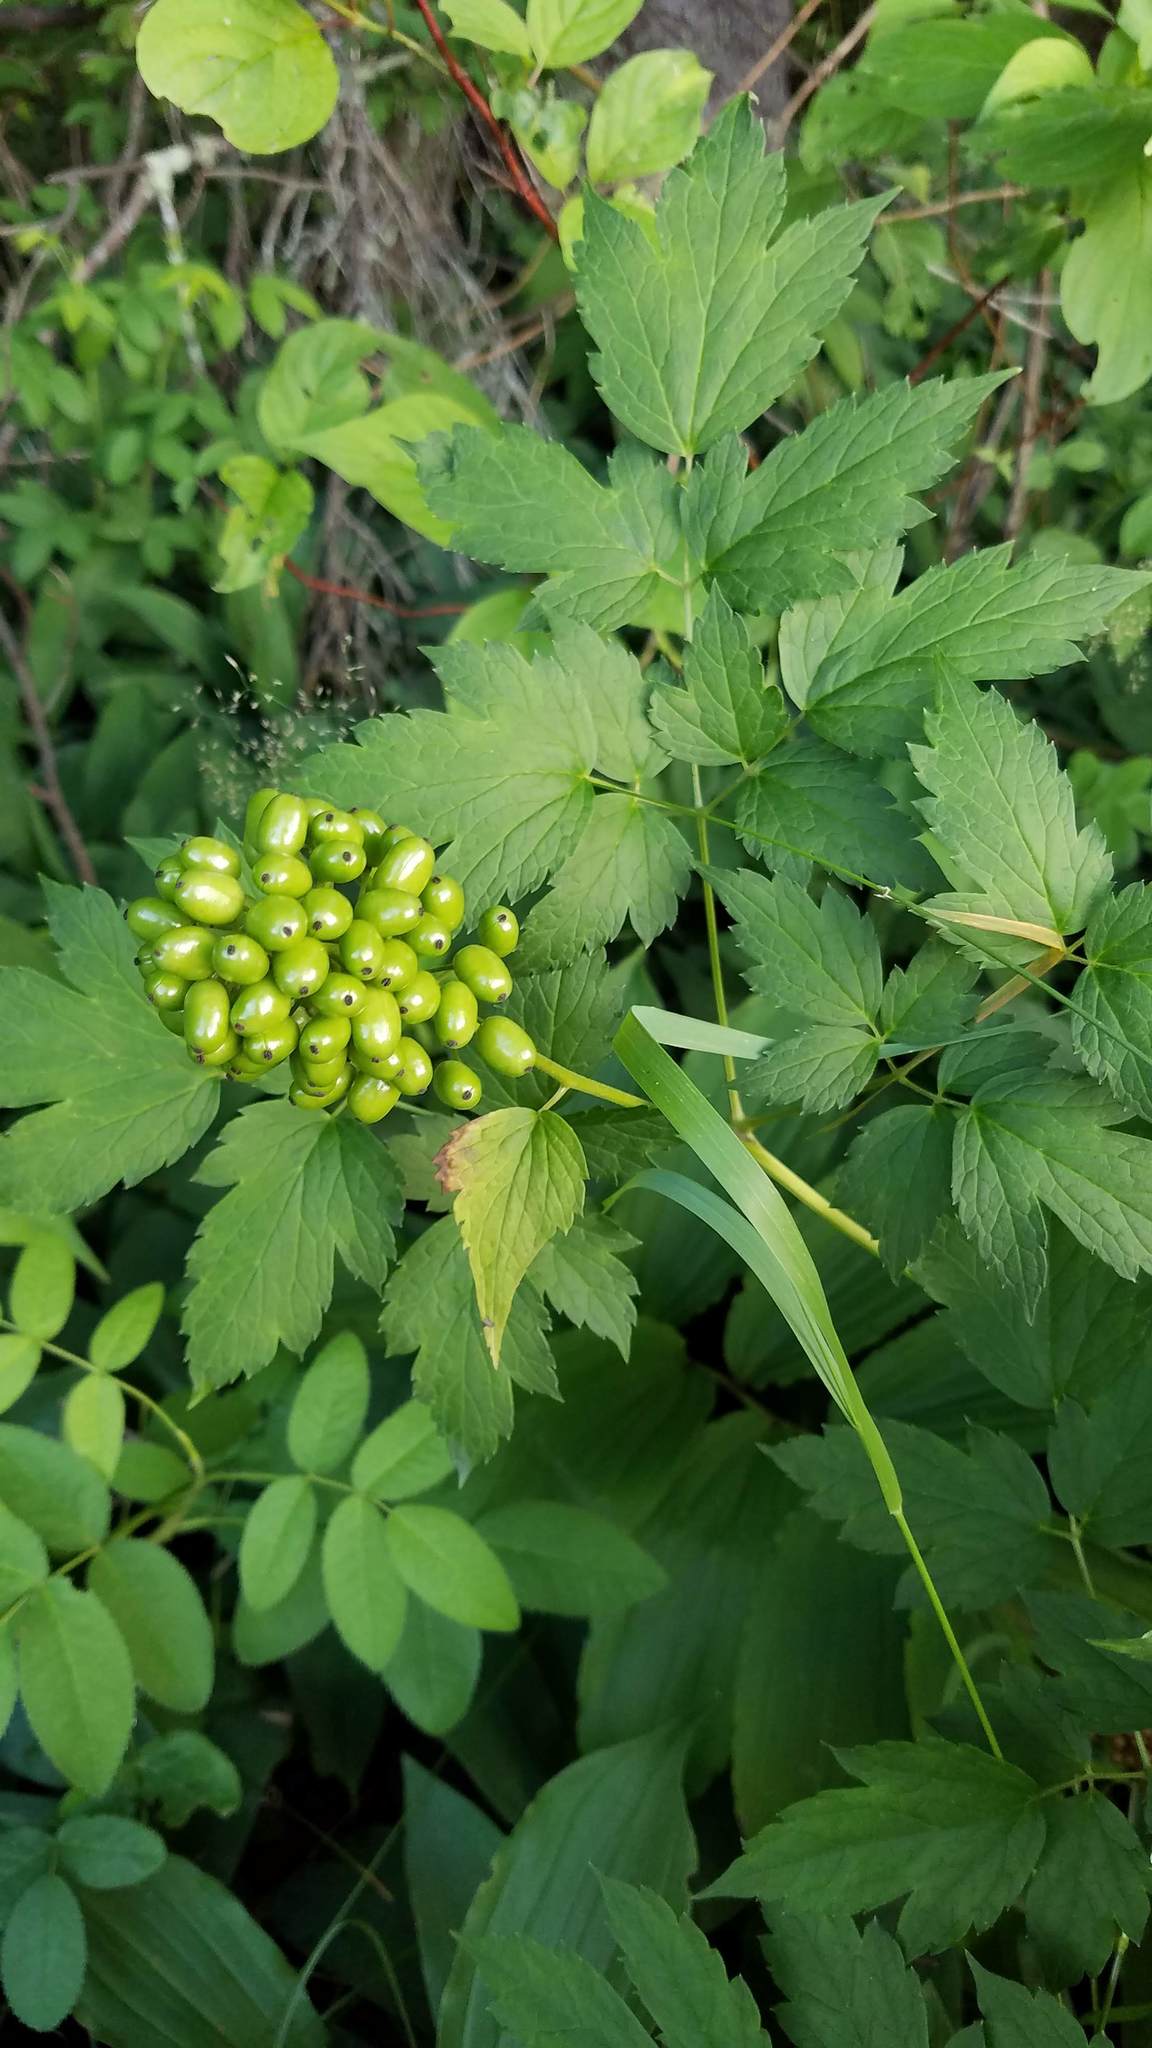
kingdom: Plantae
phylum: Tracheophyta
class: Magnoliopsida
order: Ranunculales
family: Ranunculaceae
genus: Actaea
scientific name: Actaea rubra
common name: Red baneberry
